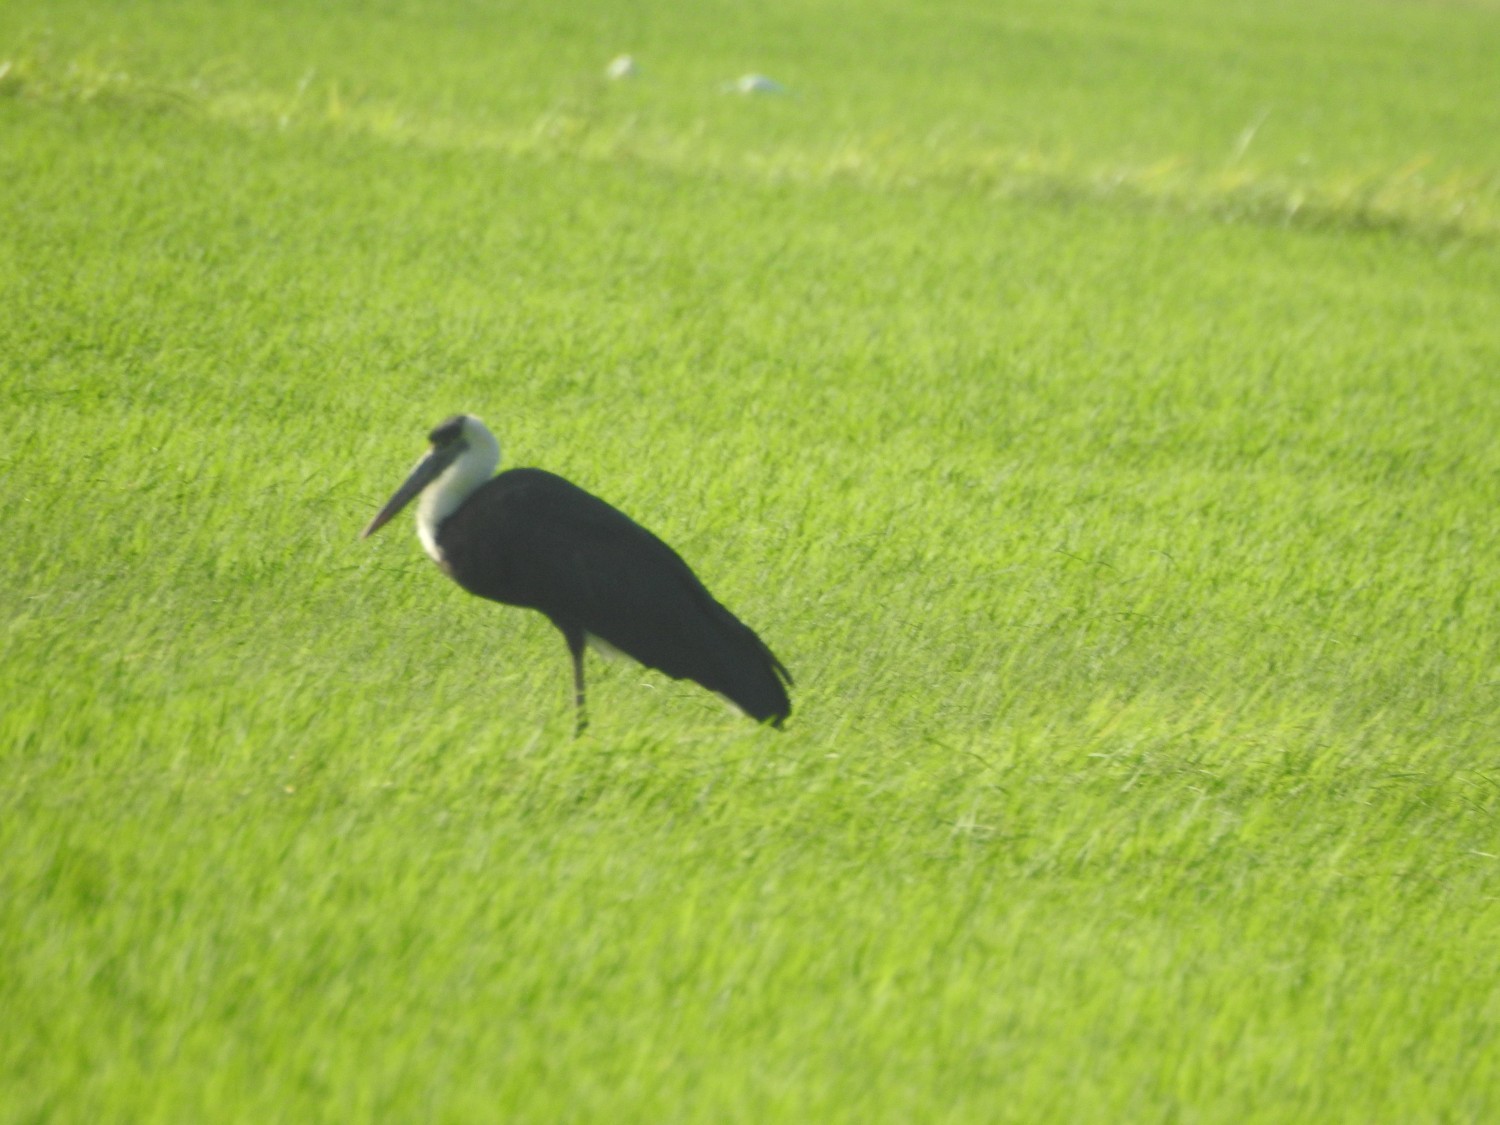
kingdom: Animalia
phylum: Chordata
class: Aves
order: Ciconiiformes
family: Ciconiidae
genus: Ciconia
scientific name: Ciconia episcopus
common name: Woolly-necked stork
